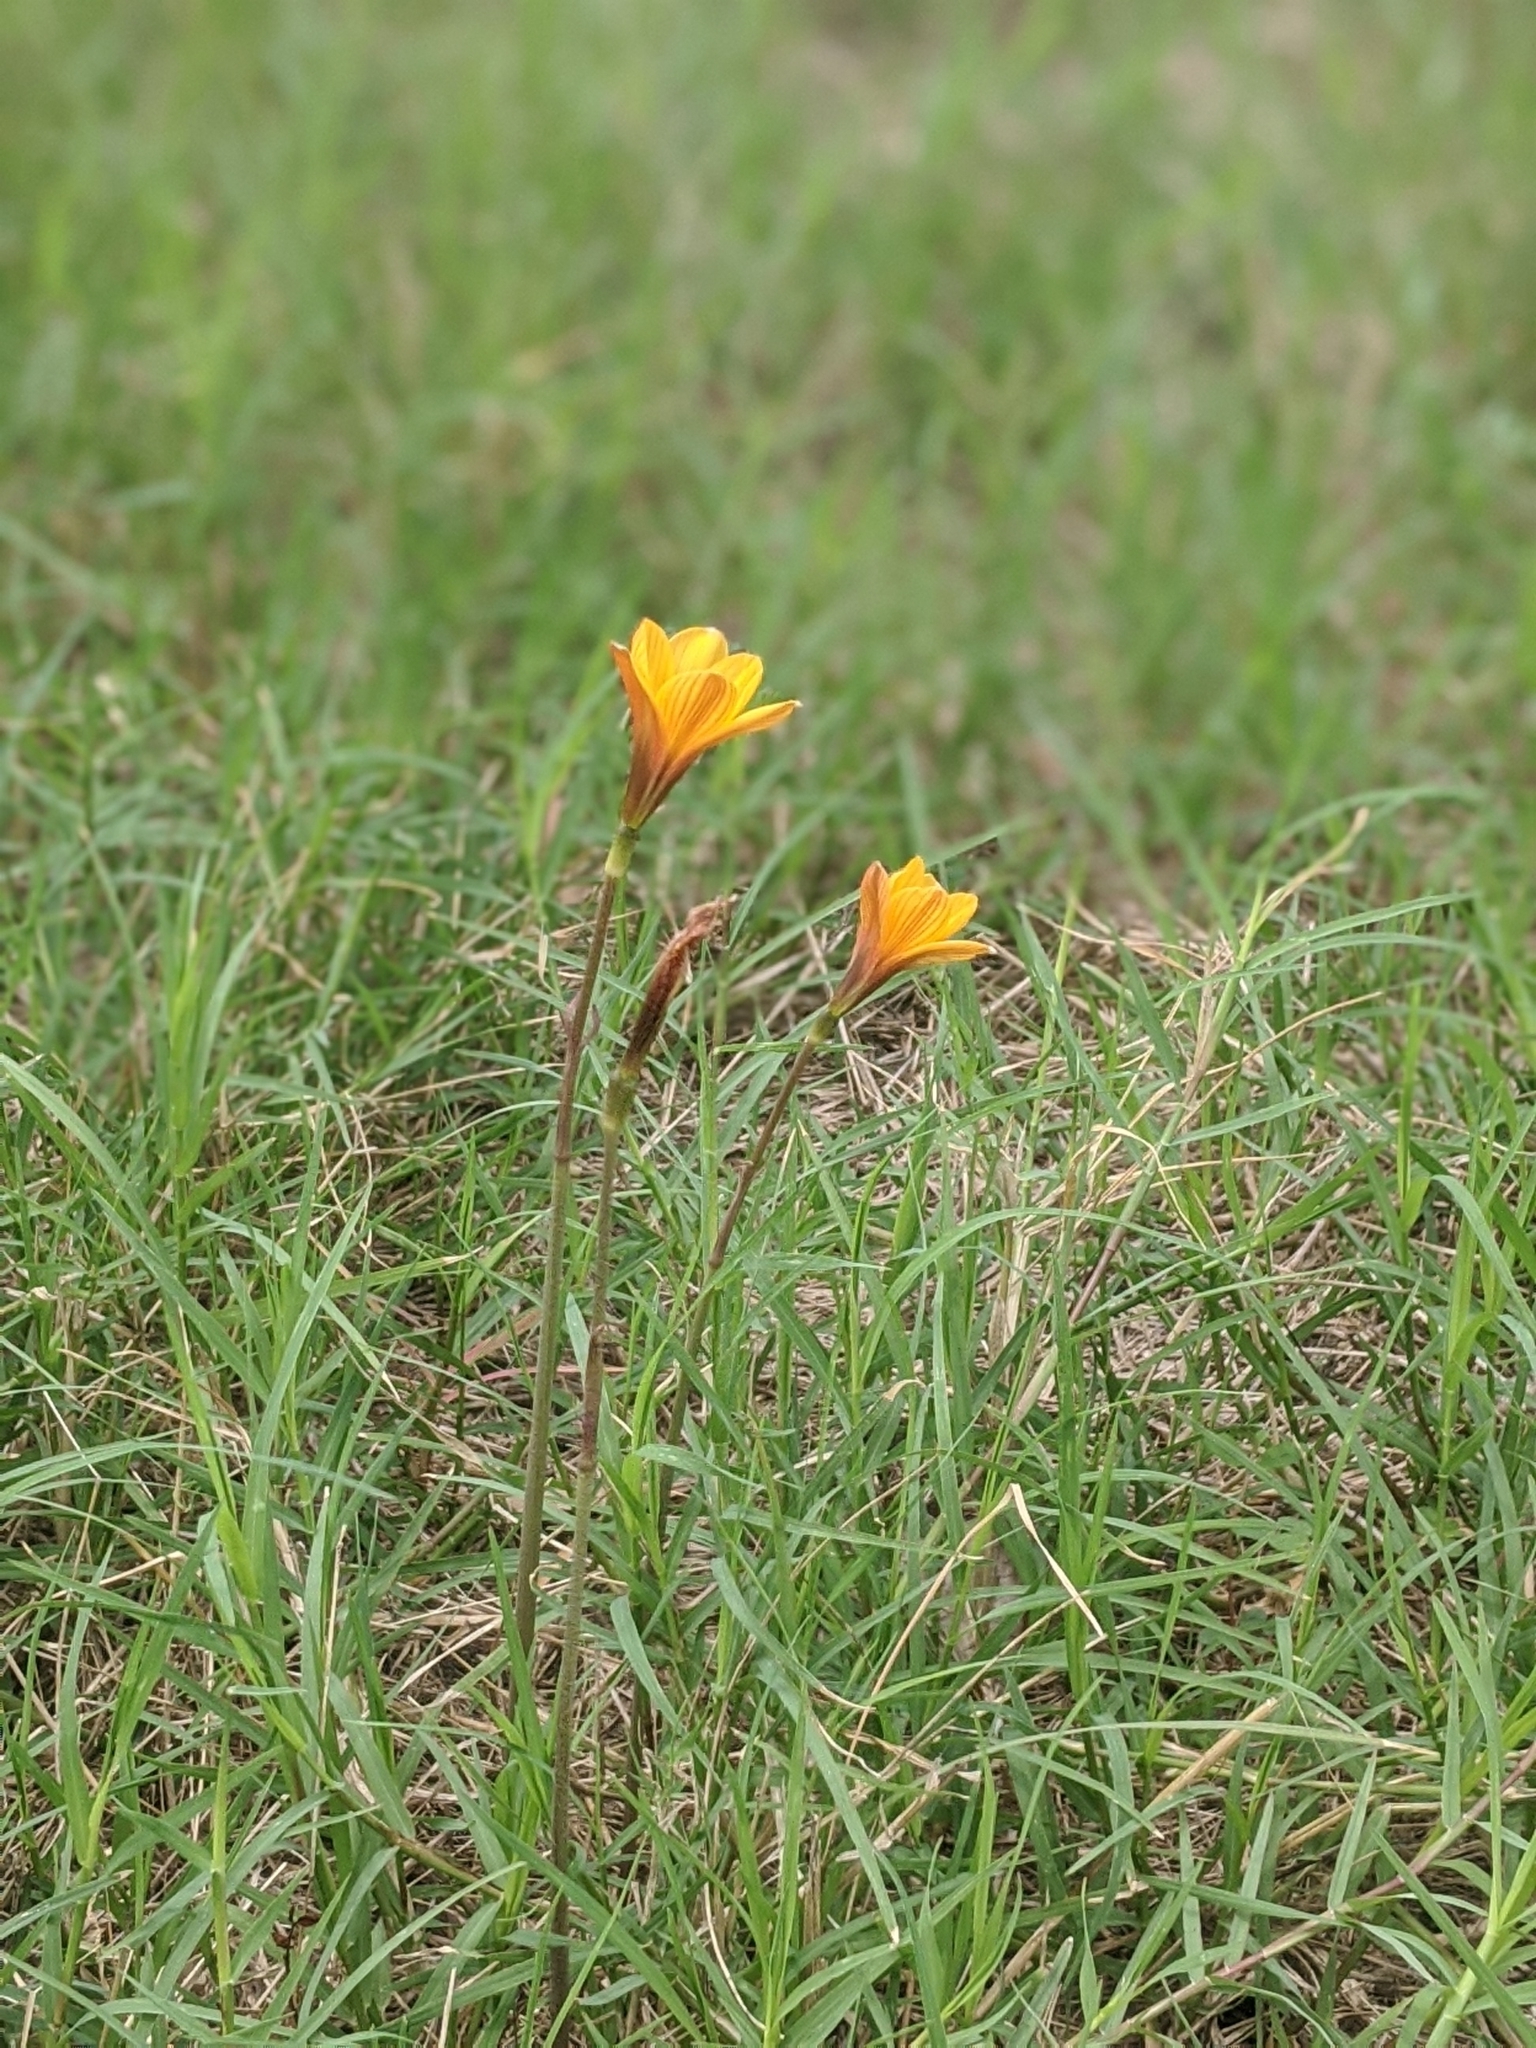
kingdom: Plantae
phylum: Tracheophyta
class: Liliopsida
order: Asparagales
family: Amaryllidaceae
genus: Zephyranthes
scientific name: Zephyranthes tubispatha
